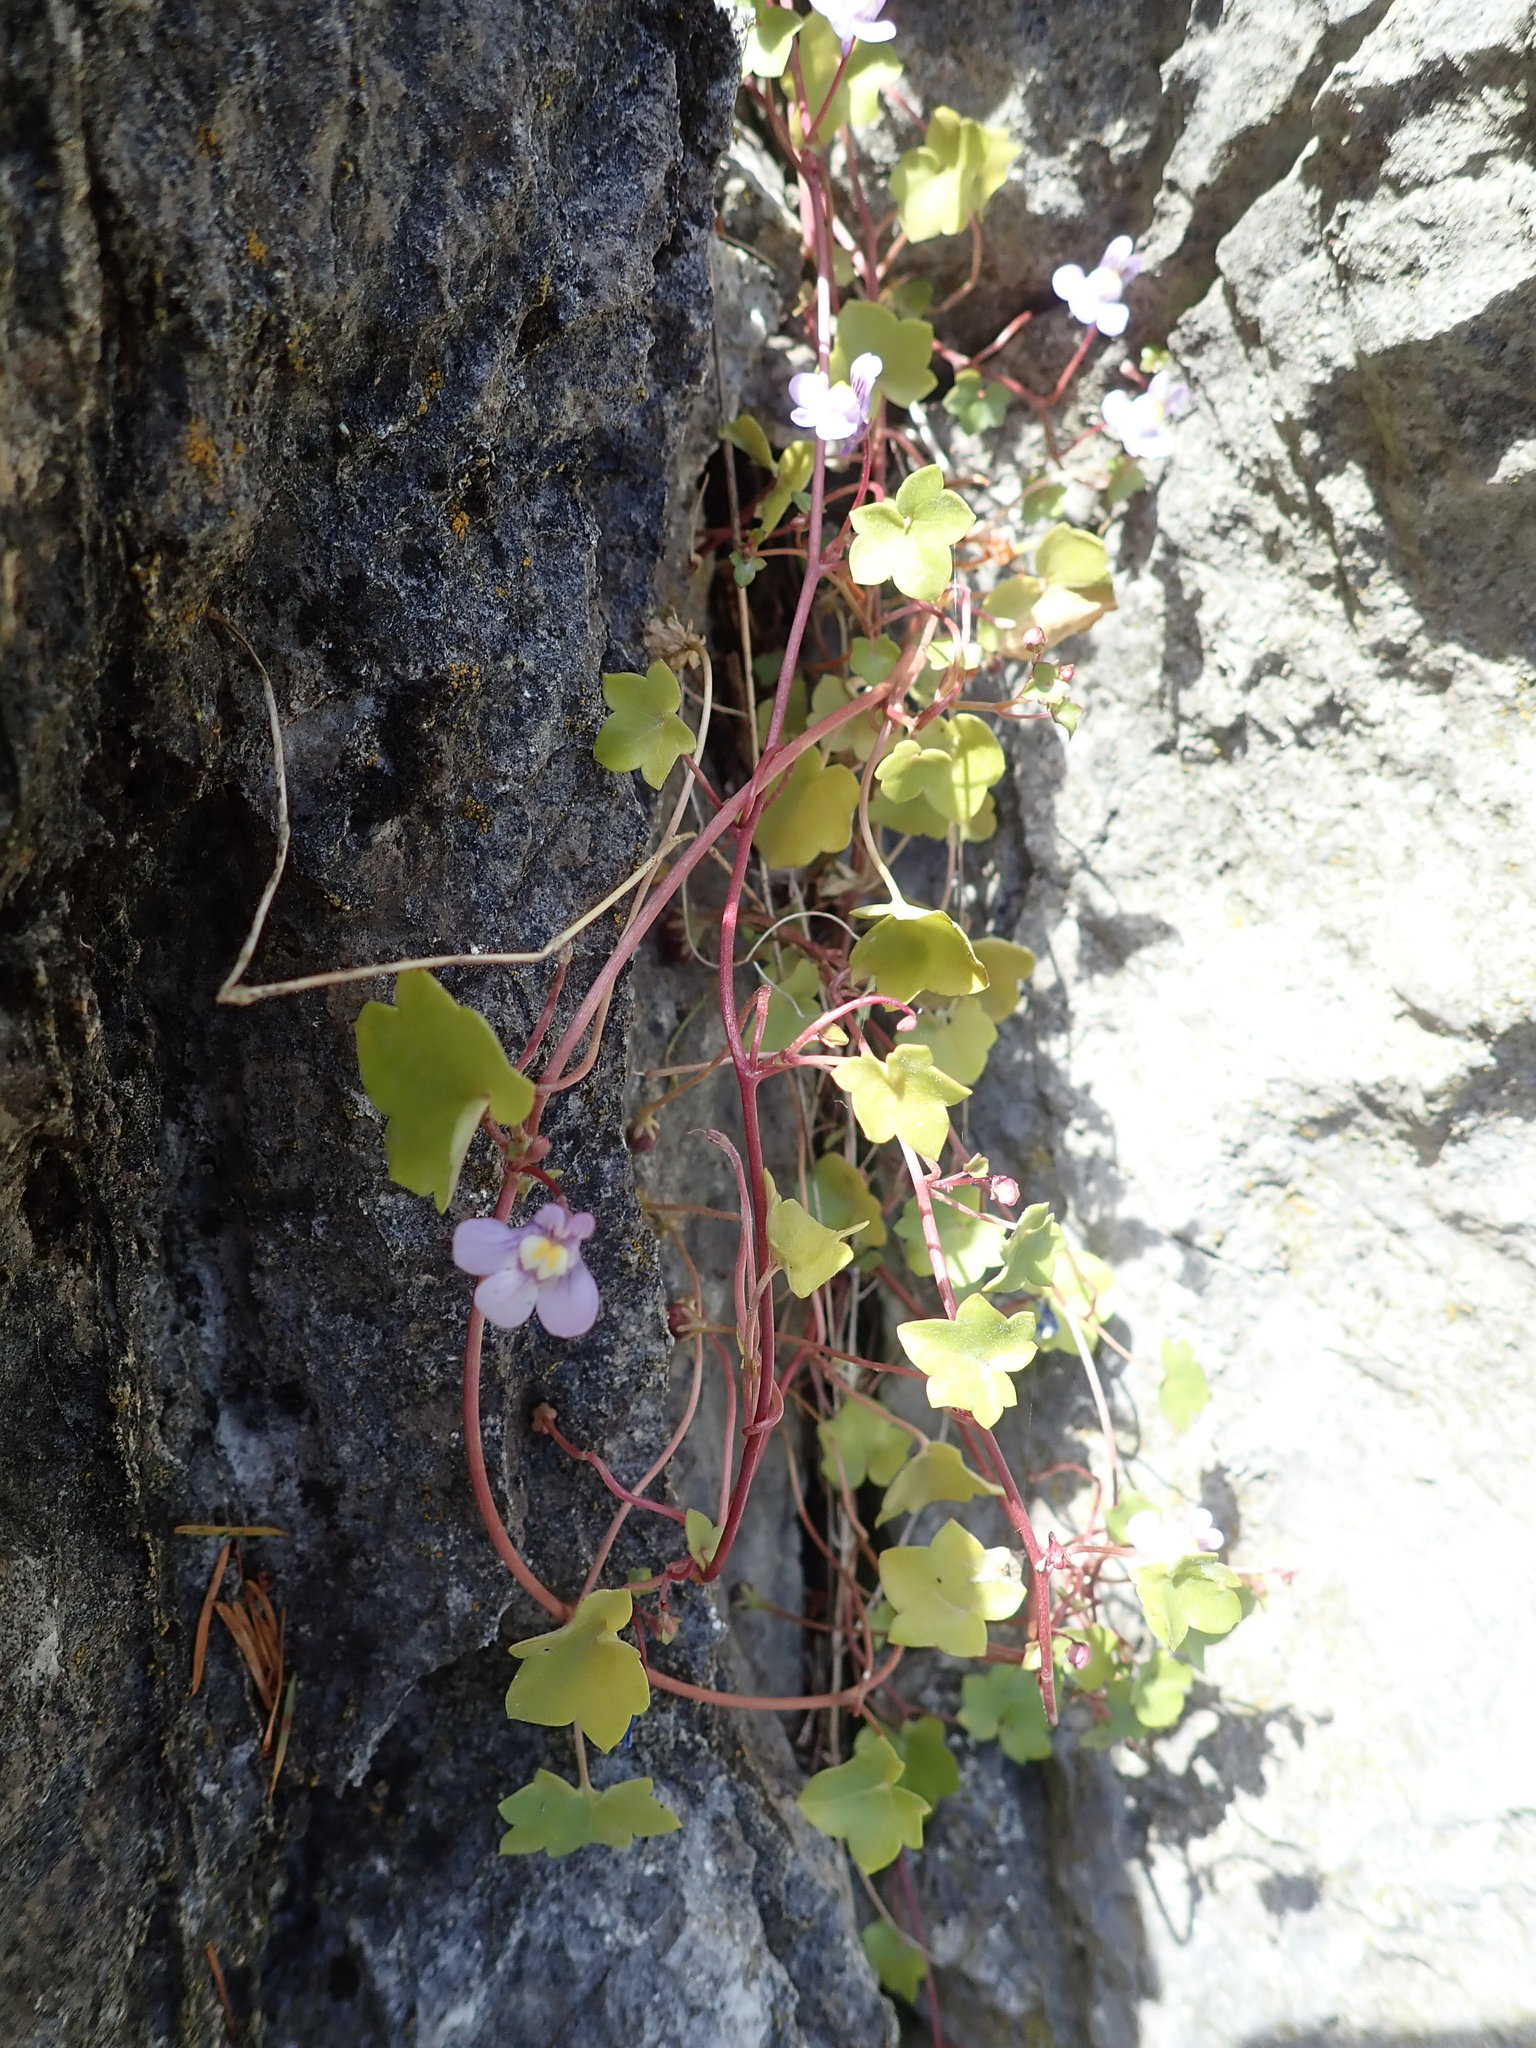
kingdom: Plantae
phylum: Tracheophyta
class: Magnoliopsida
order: Lamiales
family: Plantaginaceae
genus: Cymbalaria
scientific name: Cymbalaria muralis
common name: Ivy-leaved toadflax
